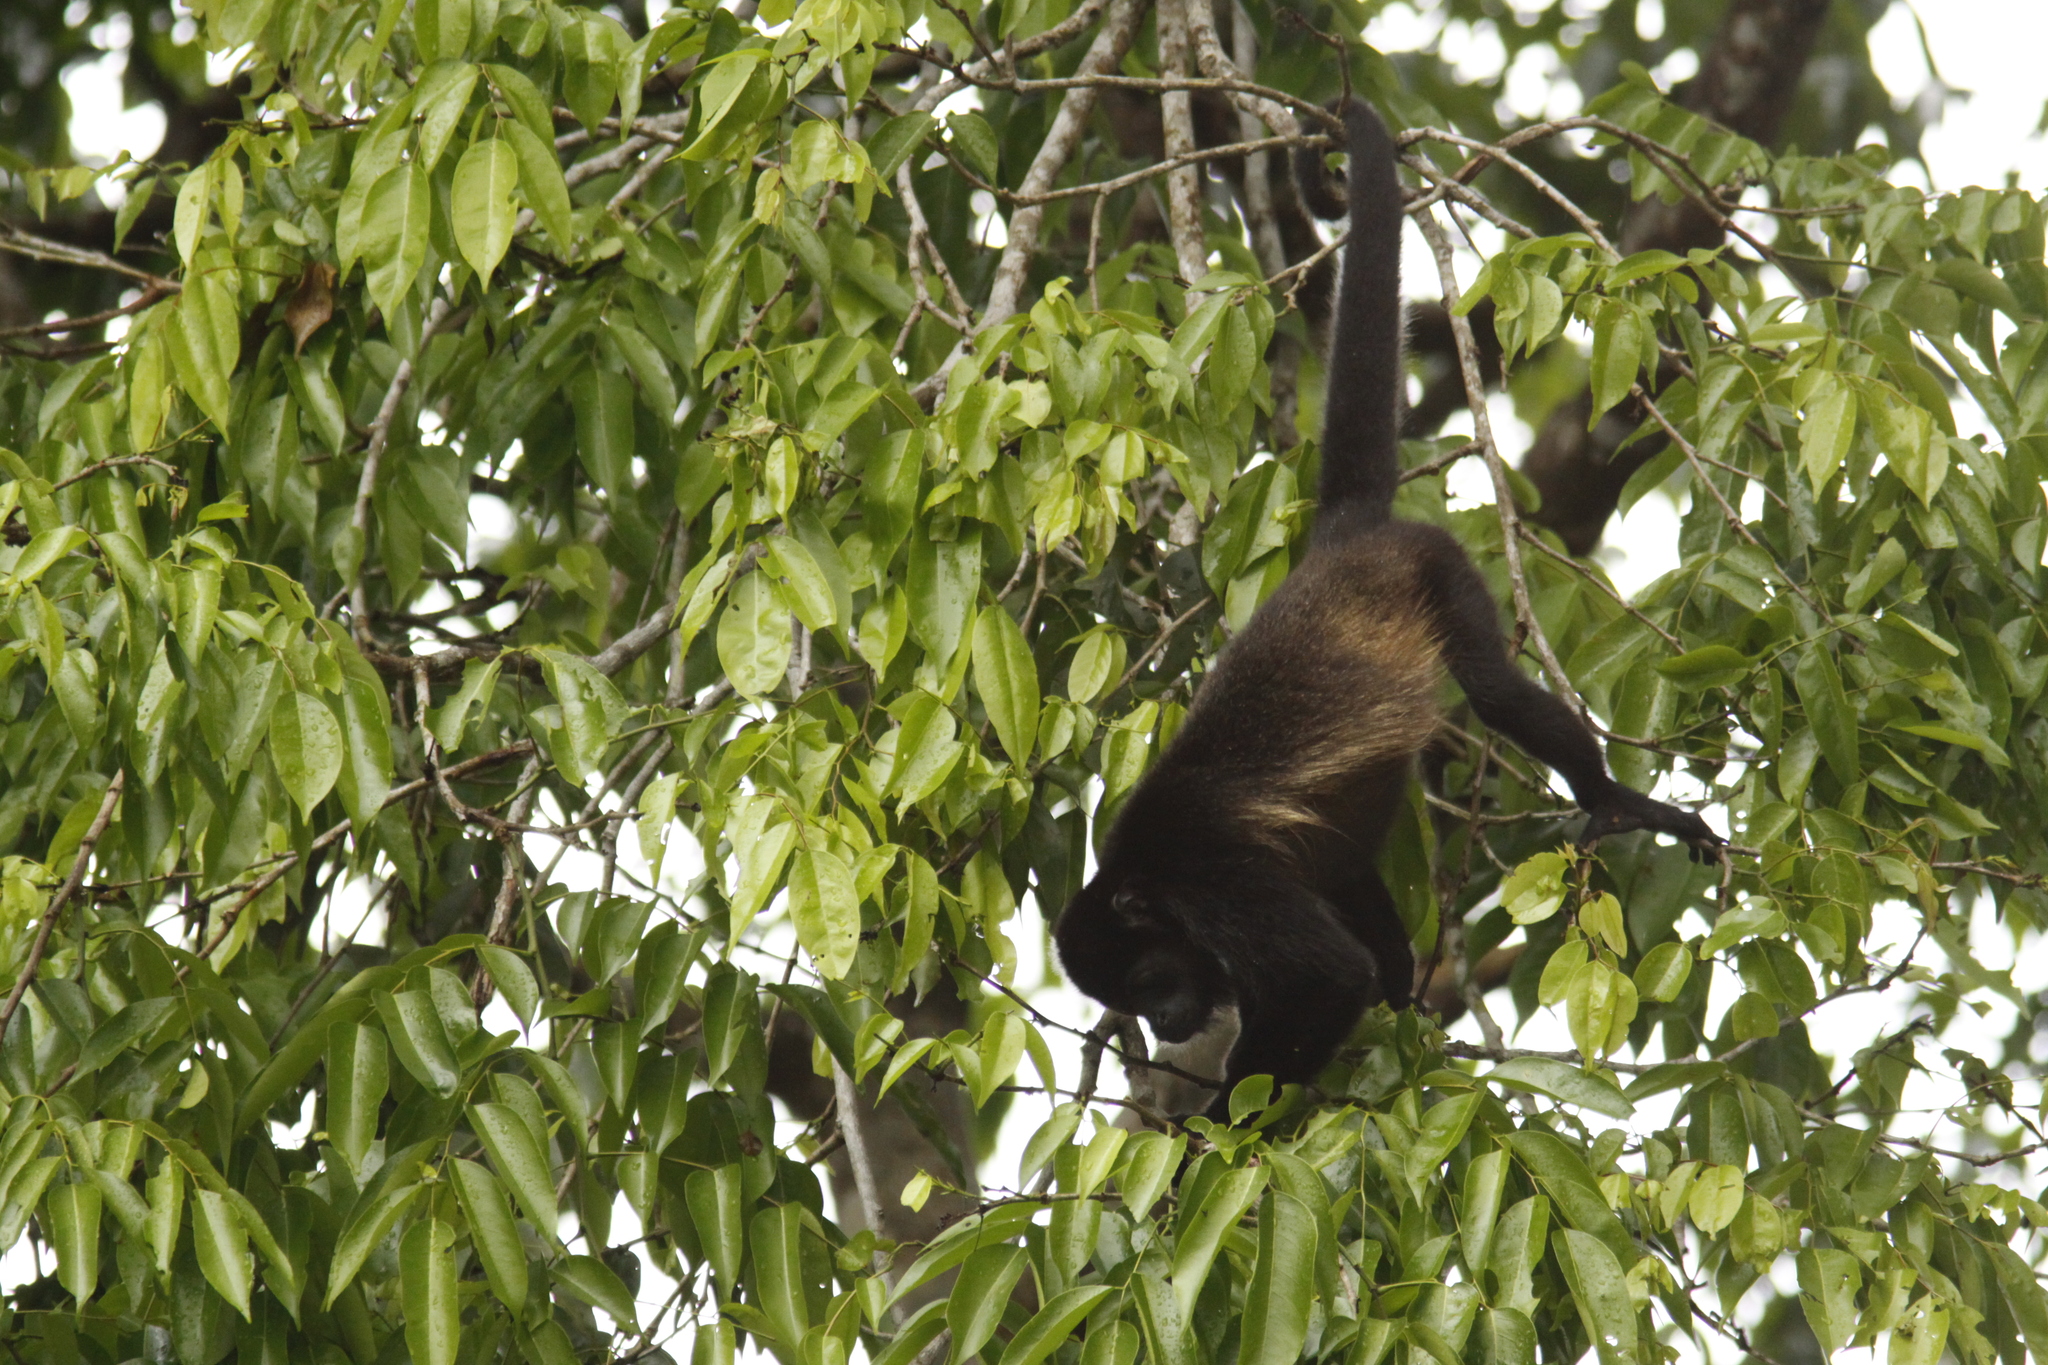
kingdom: Animalia
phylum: Chordata
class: Mammalia
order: Primates
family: Atelidae
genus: Alouatta
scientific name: Alouatta palliata
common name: Mantled howler
